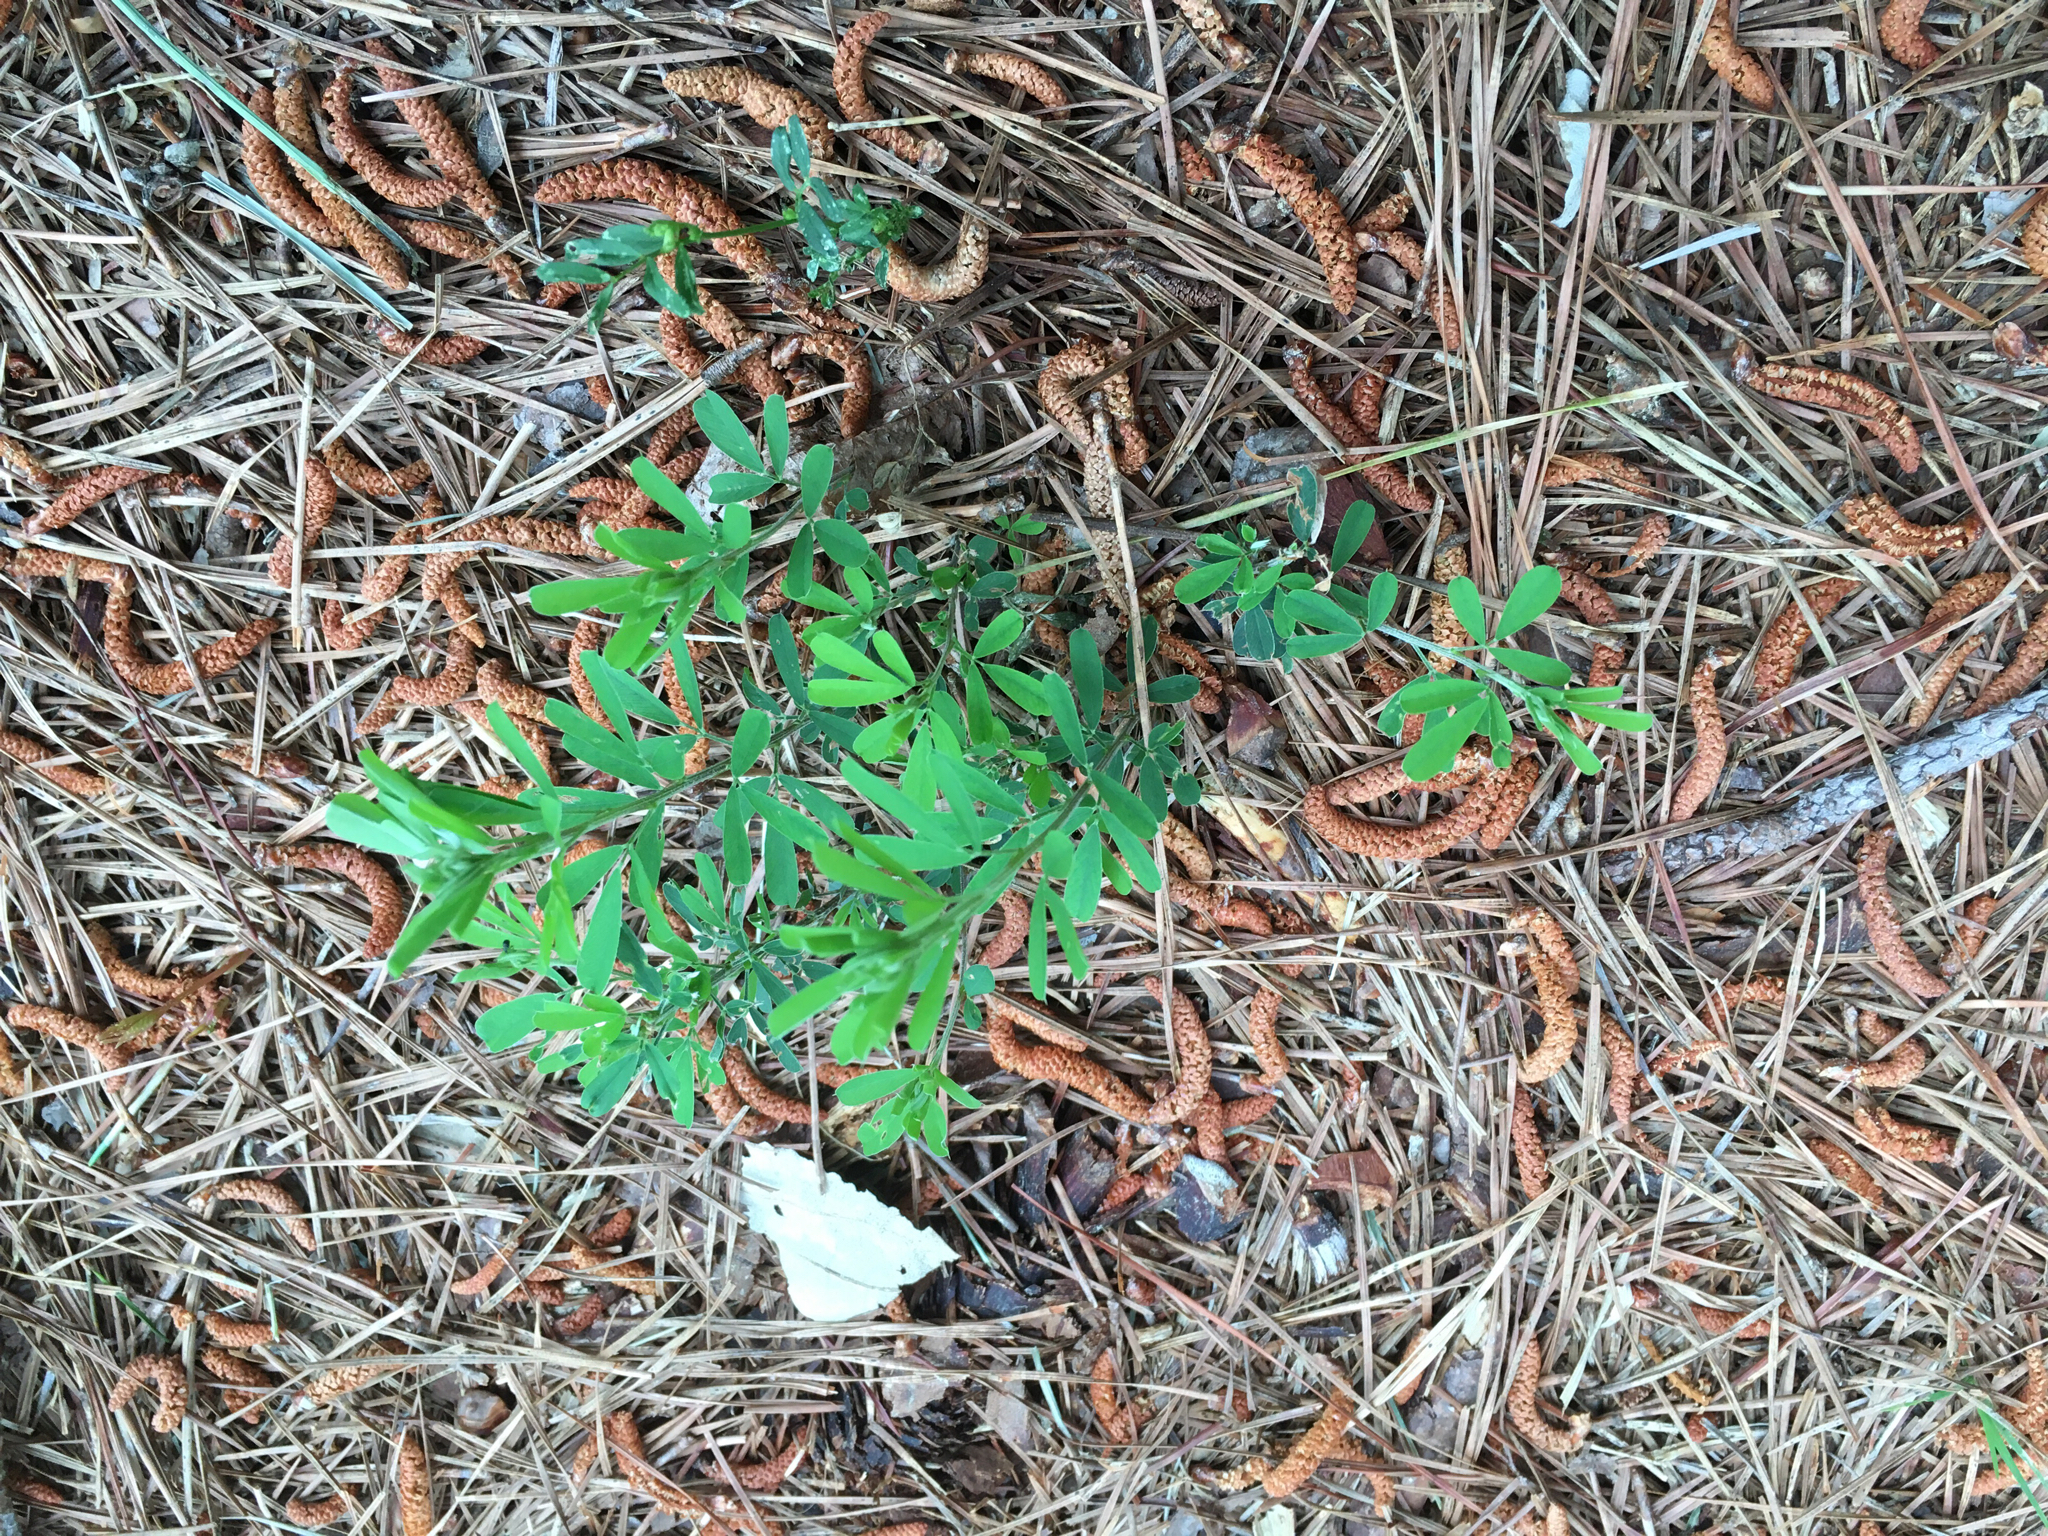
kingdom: Plantae
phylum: Tracheophyta
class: Magnoliopsida
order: Fabales
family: Fabaceae
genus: Lespedeza
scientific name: Lespedeza cuneata
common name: Chinese bush-clover
